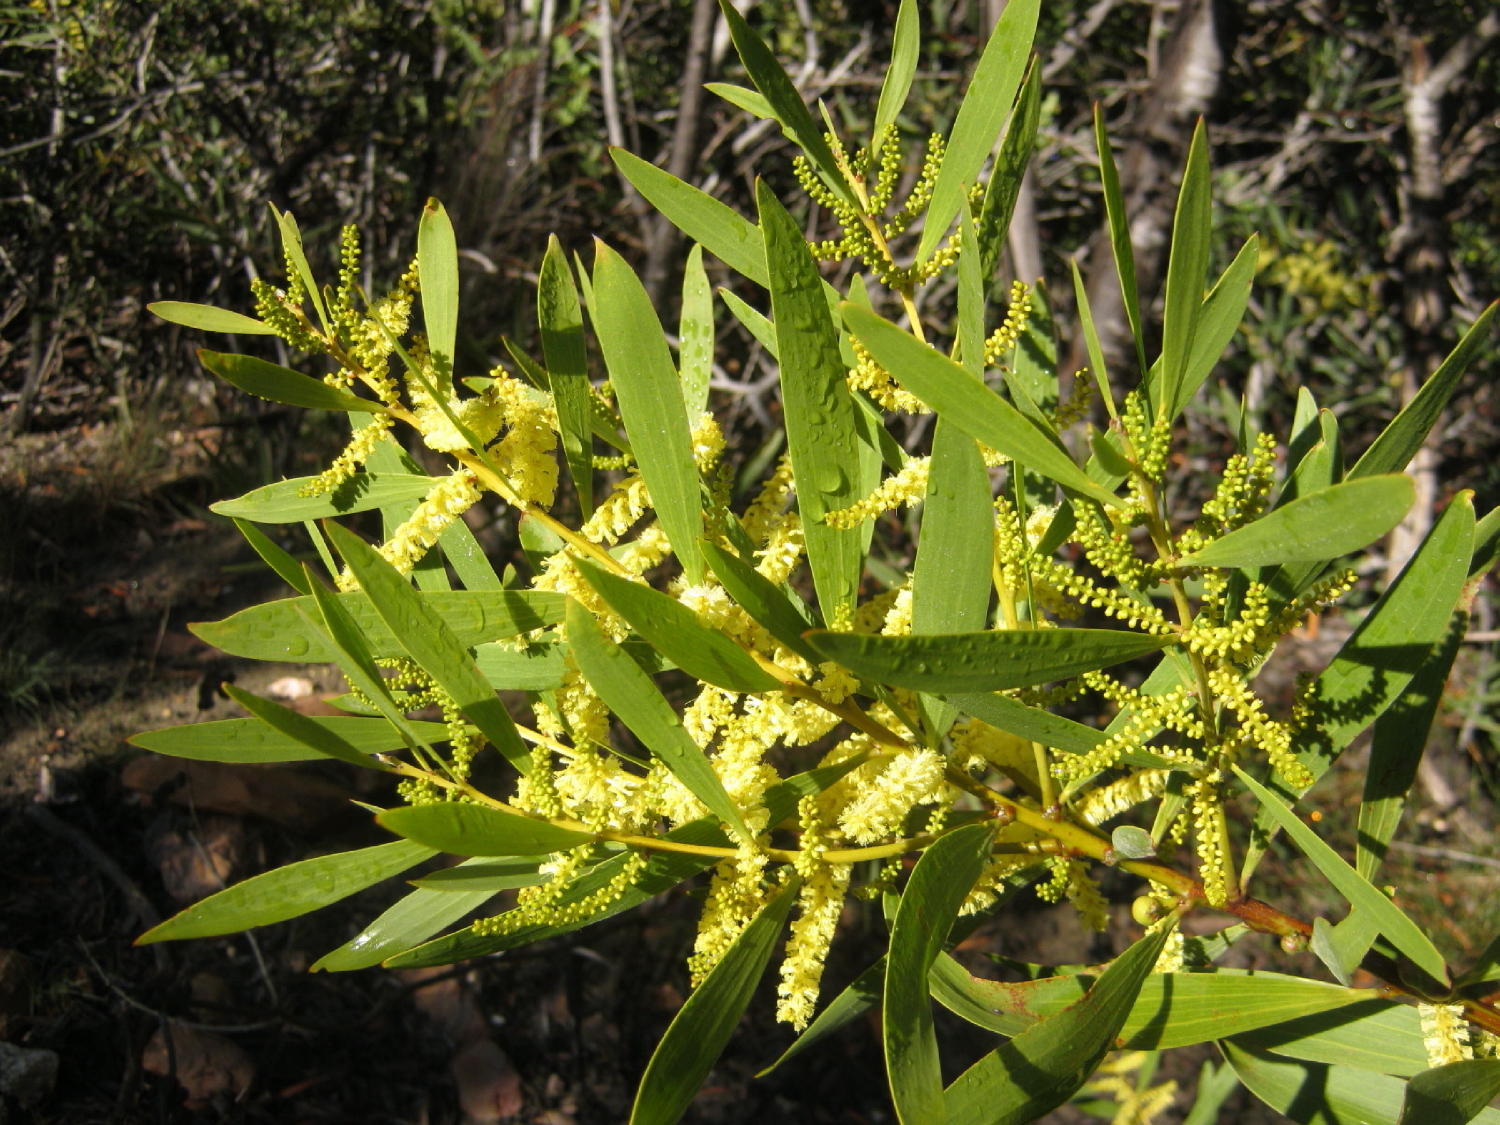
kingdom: Plantae
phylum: Tracheophyta
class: Magnoliopsida
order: Fabales
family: Fabaceae
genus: Acacia
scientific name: Acacia longifolia
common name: Sydney golden wattle
